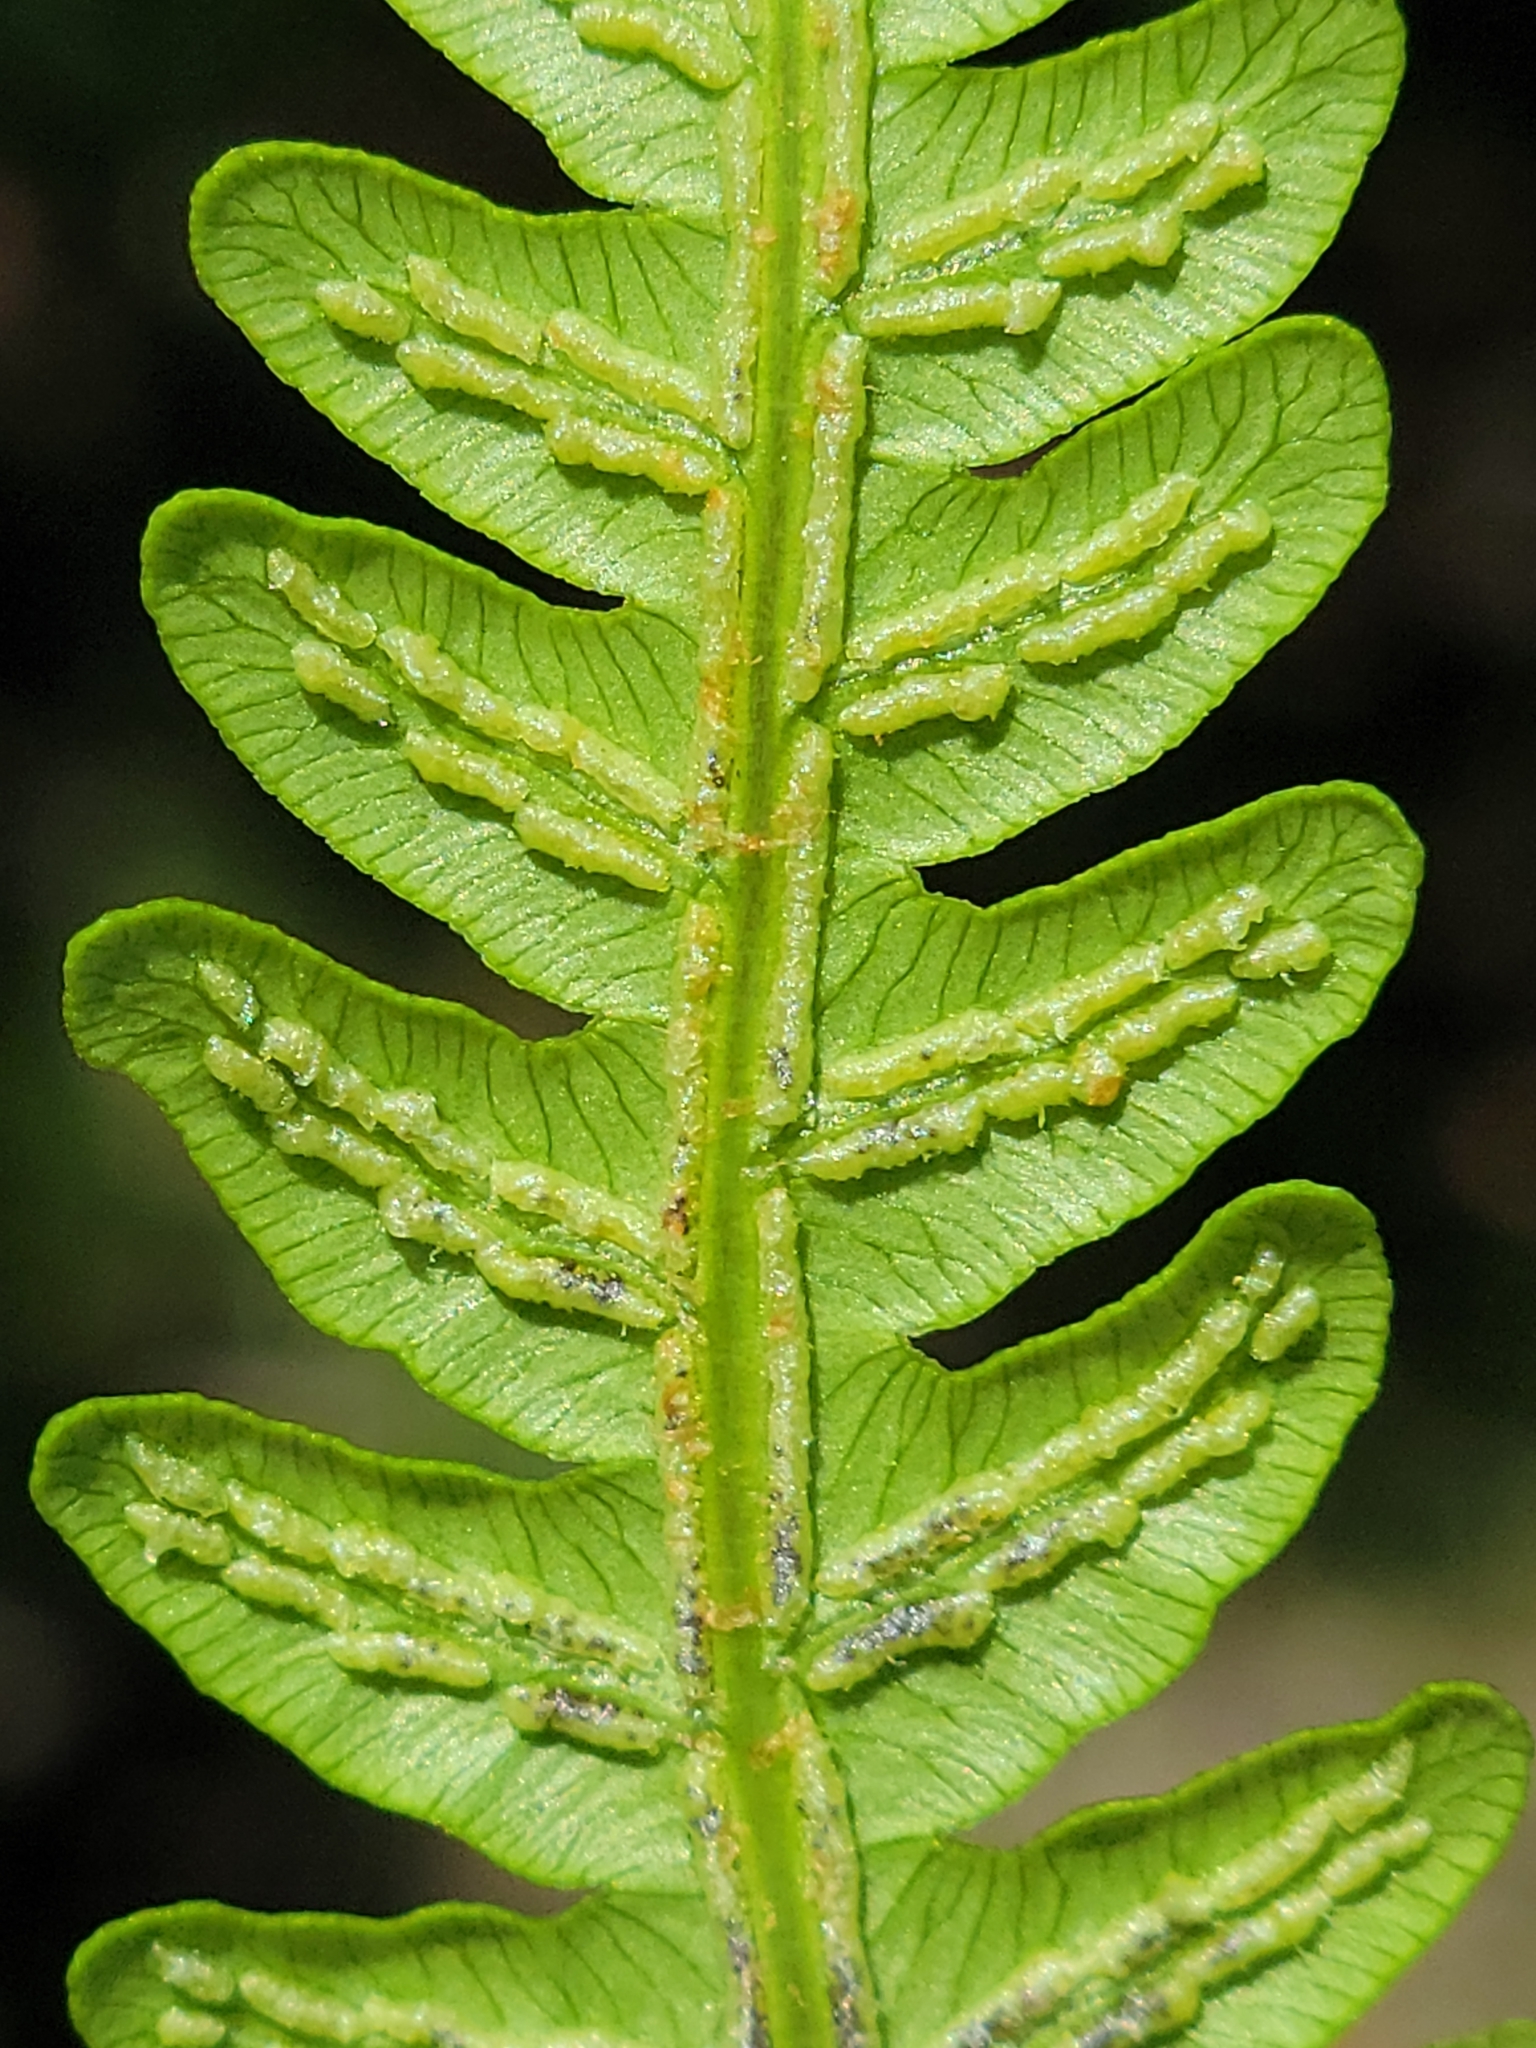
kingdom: Plantae
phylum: Tracheophyta
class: Polypodiopsida
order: Polypodiales
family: Blechnaceae
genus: Anchistea
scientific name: Anchistea virginica
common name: Virginia chain fern
